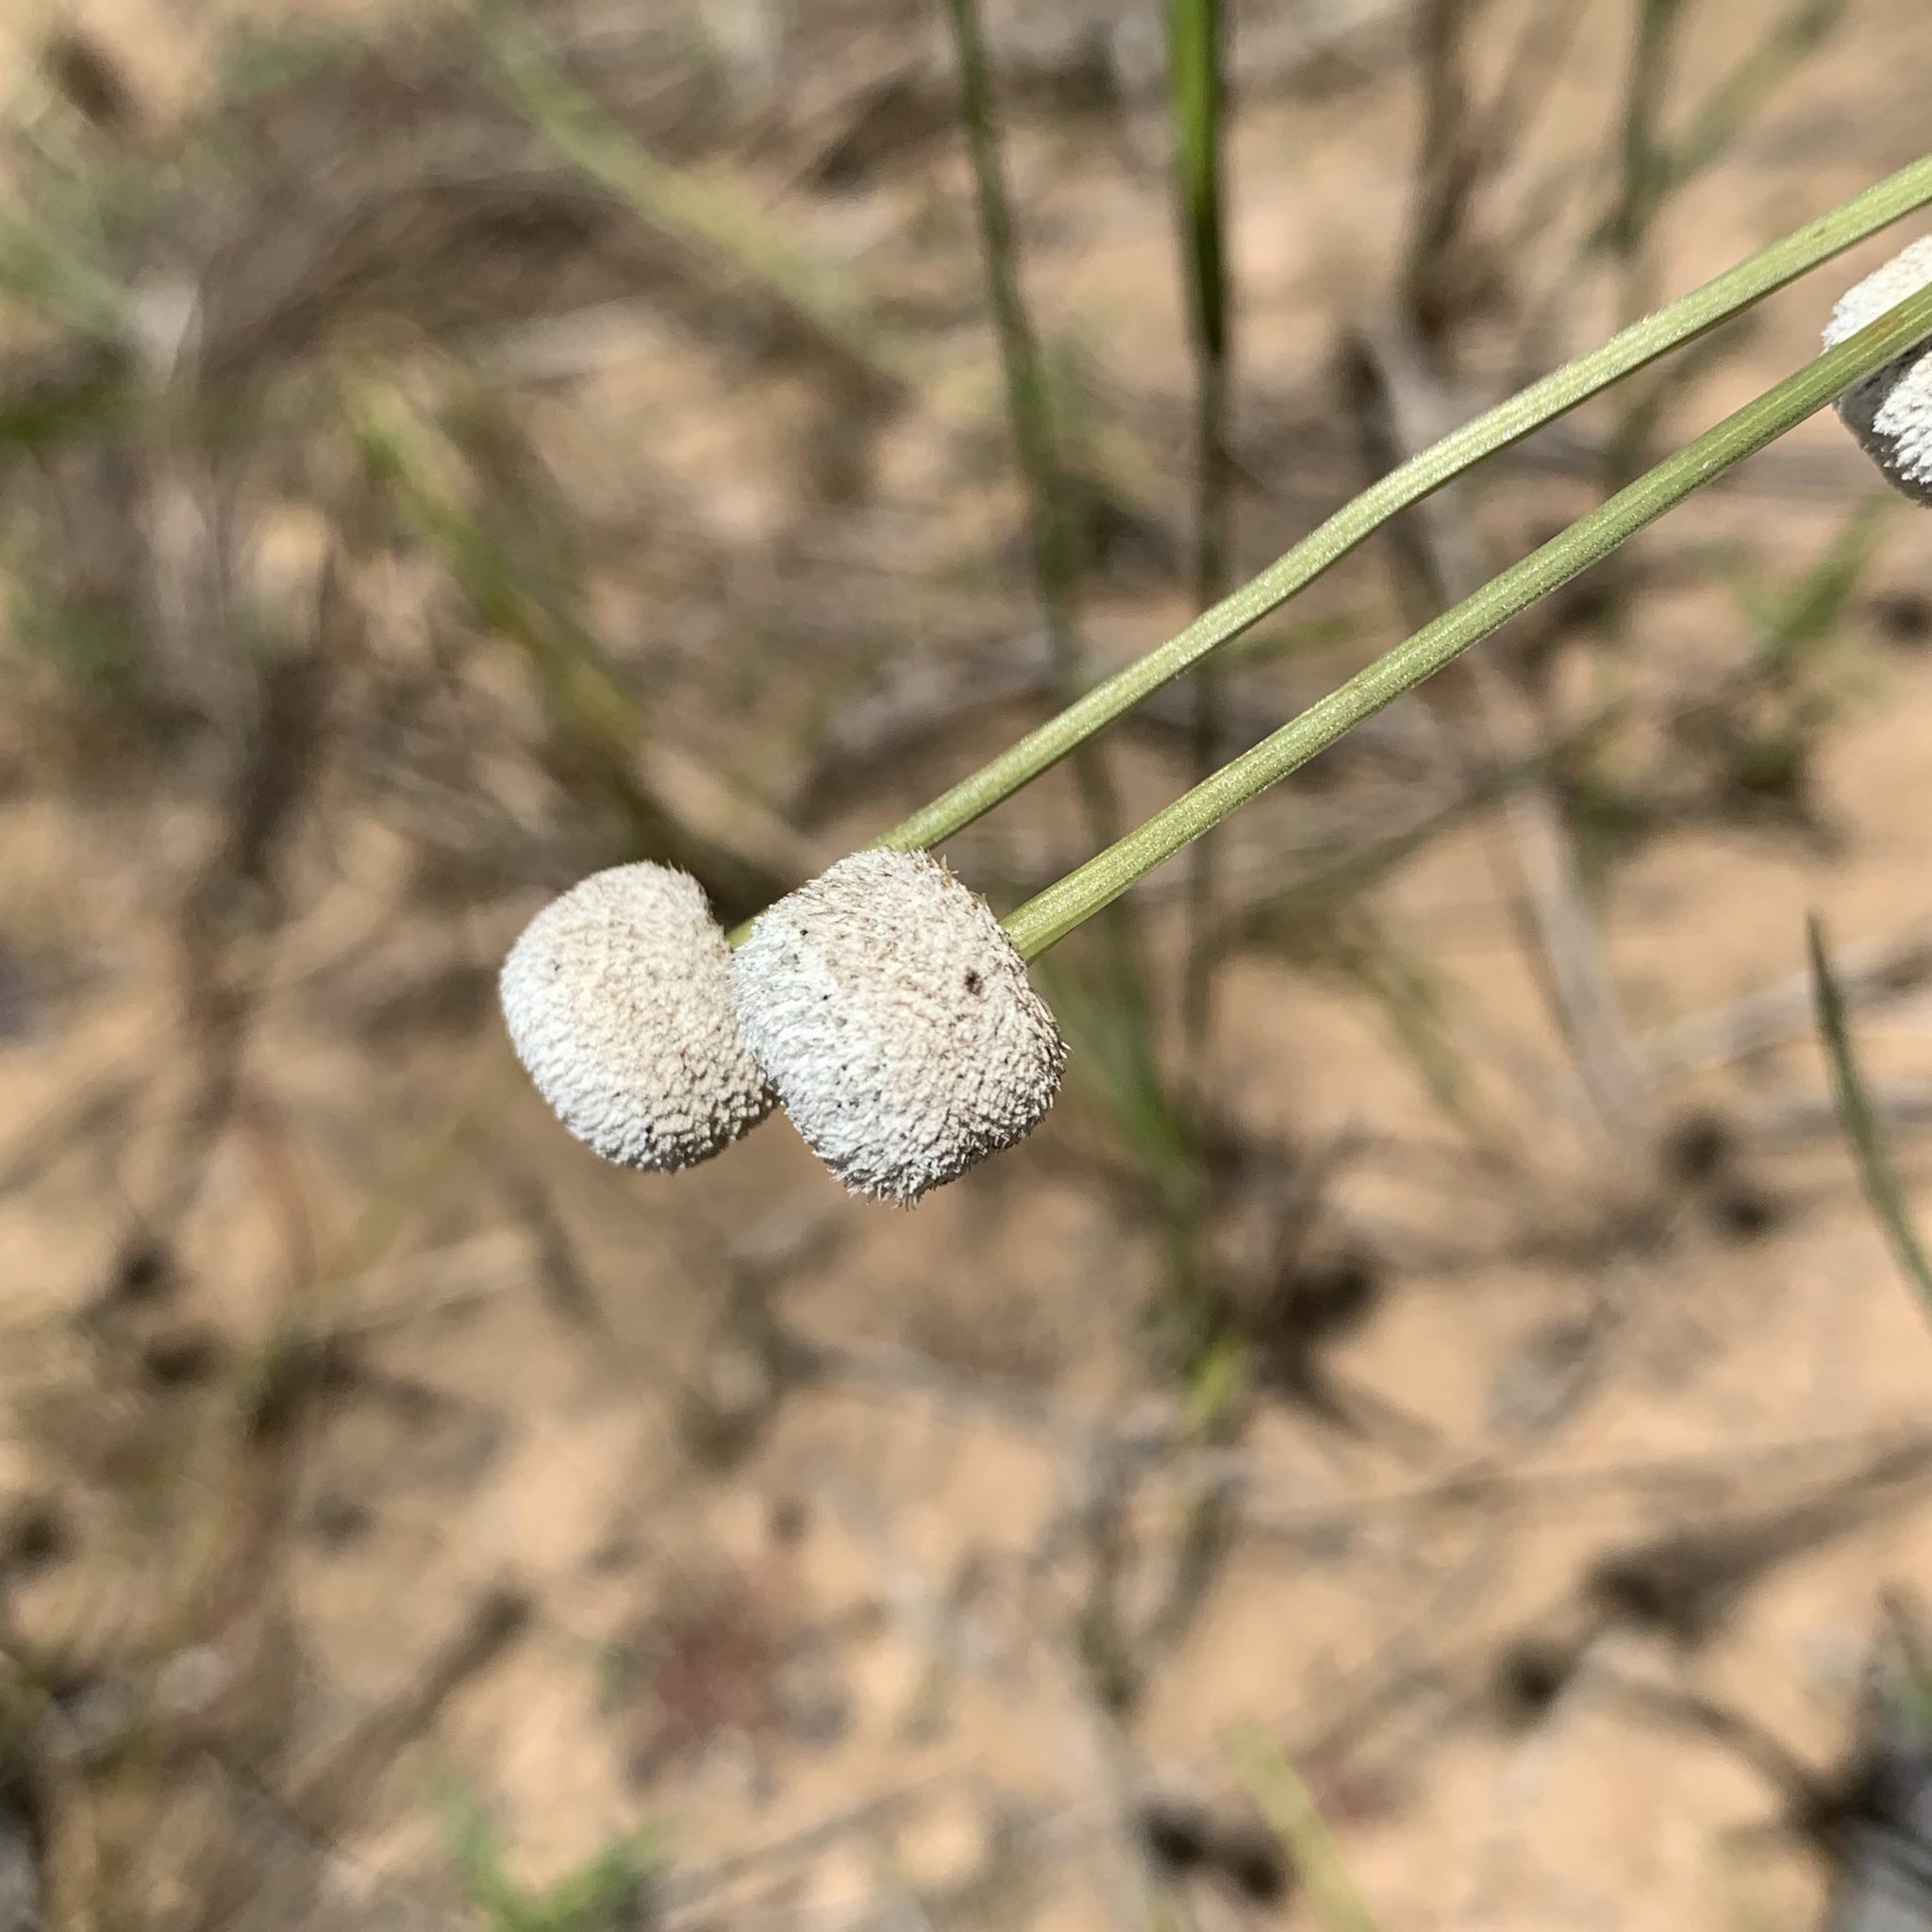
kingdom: Plantae
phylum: Tracheophyta
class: Liliopsida
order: Poales
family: Eriocaulaceae
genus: Eriocaulon
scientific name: Eriocaulon decangulare
